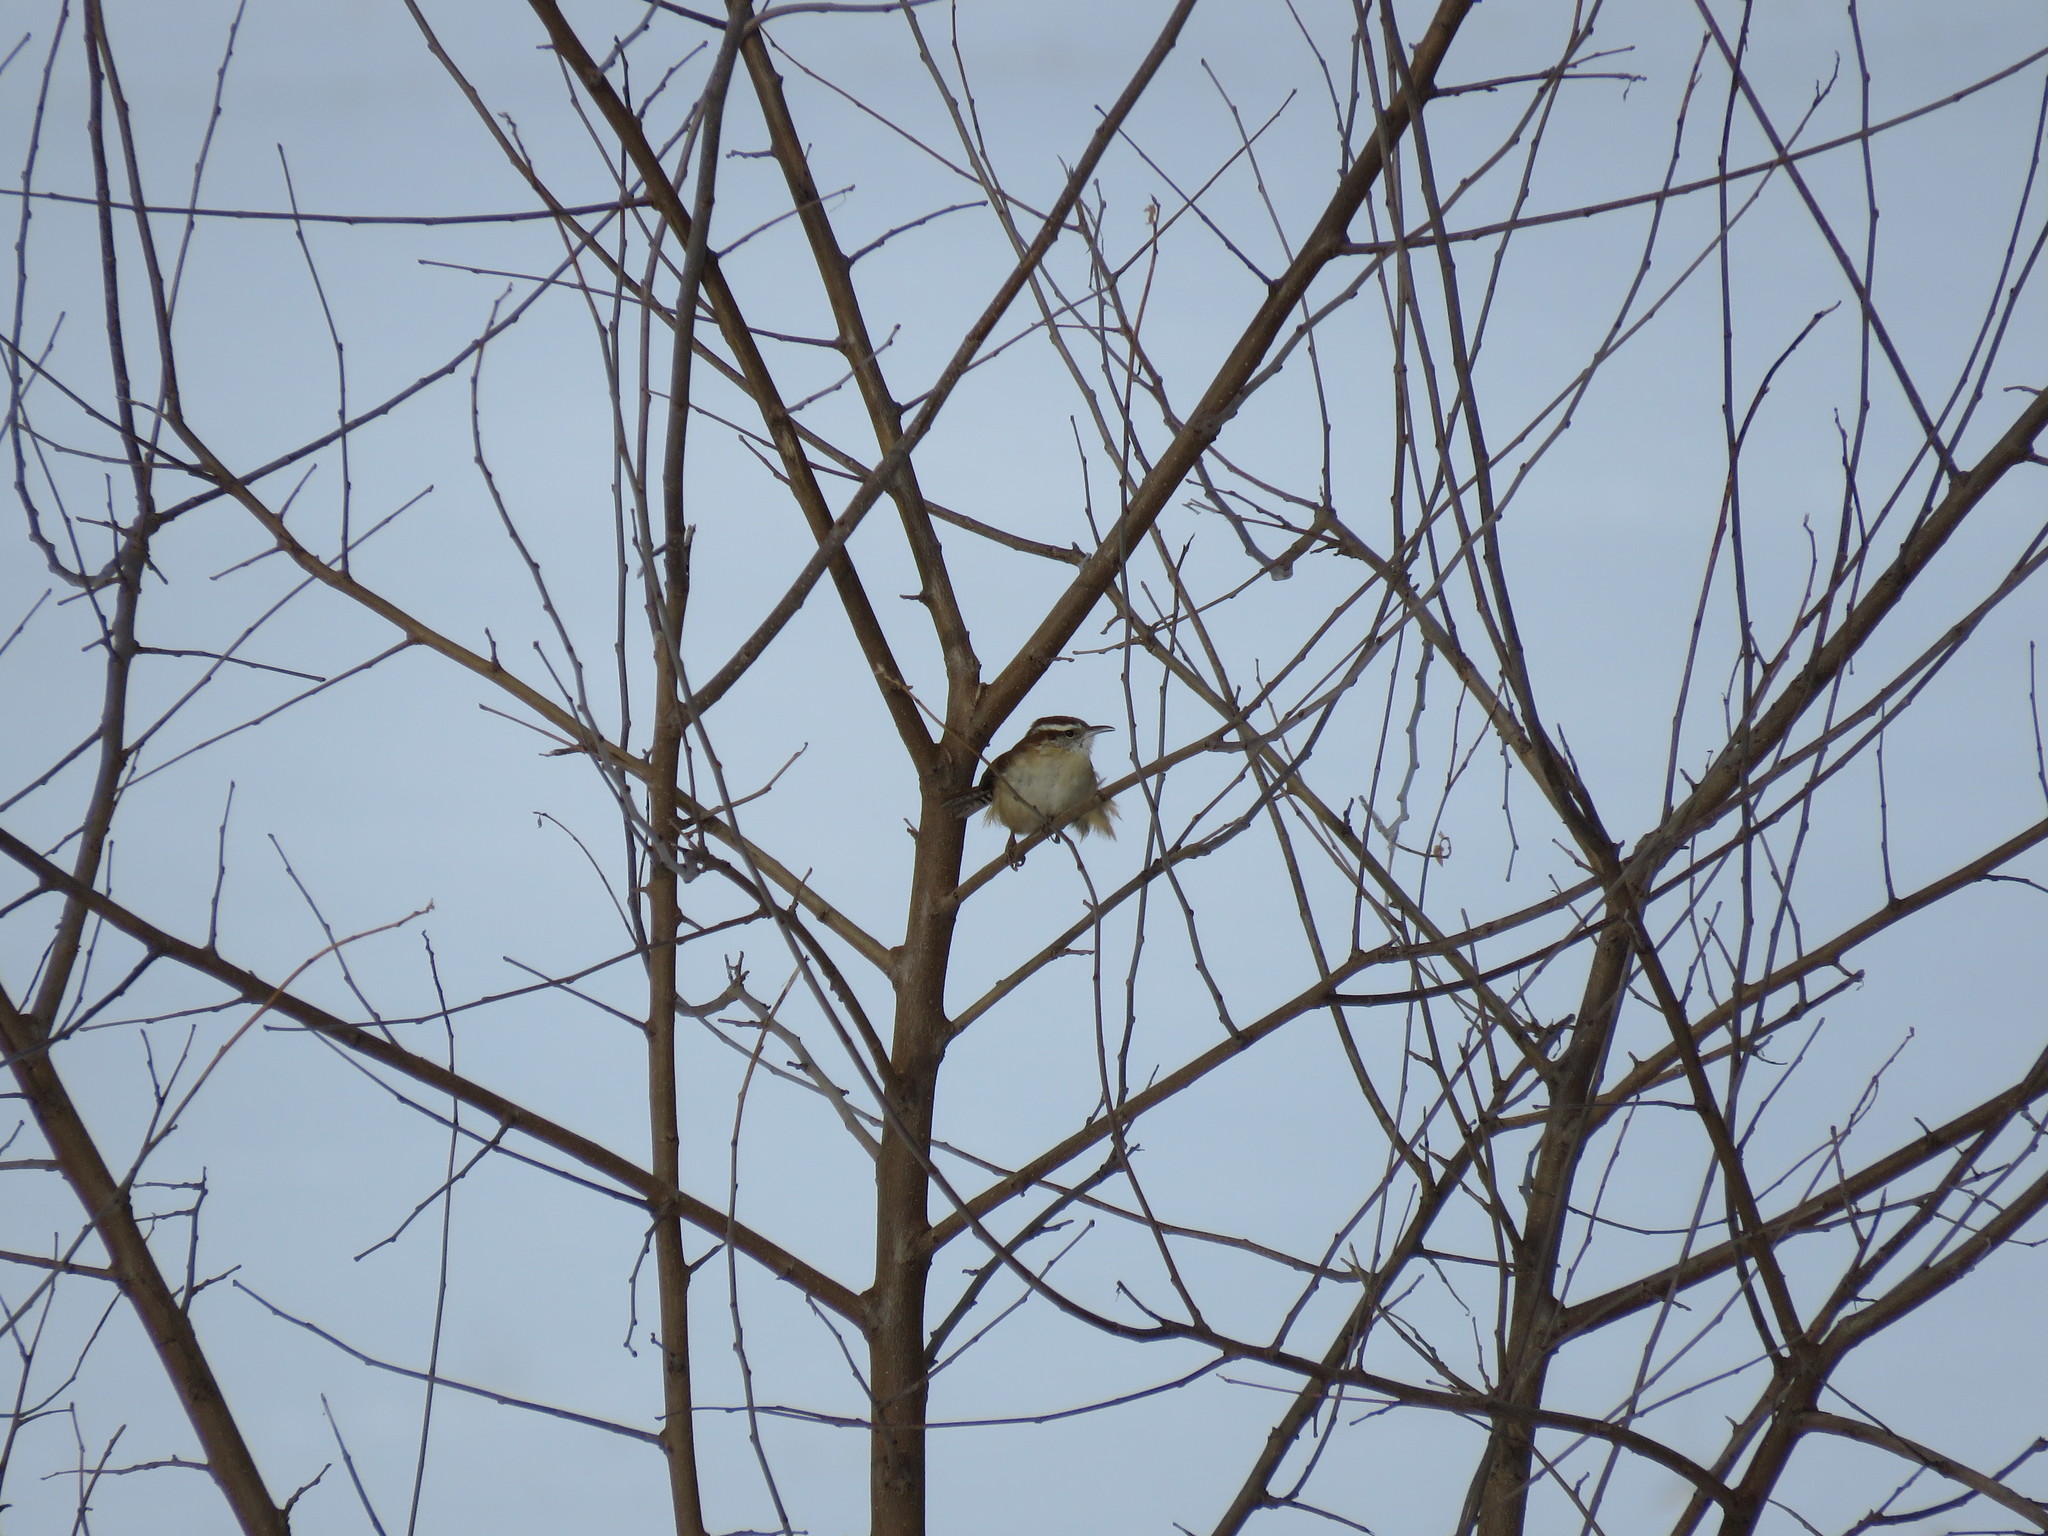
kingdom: Animalia
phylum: Chordata
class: Aves
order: Passeriformes
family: Troglodytidae
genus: Thryothorus
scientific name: Thryothorus ludovicianus
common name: Carolina wren
